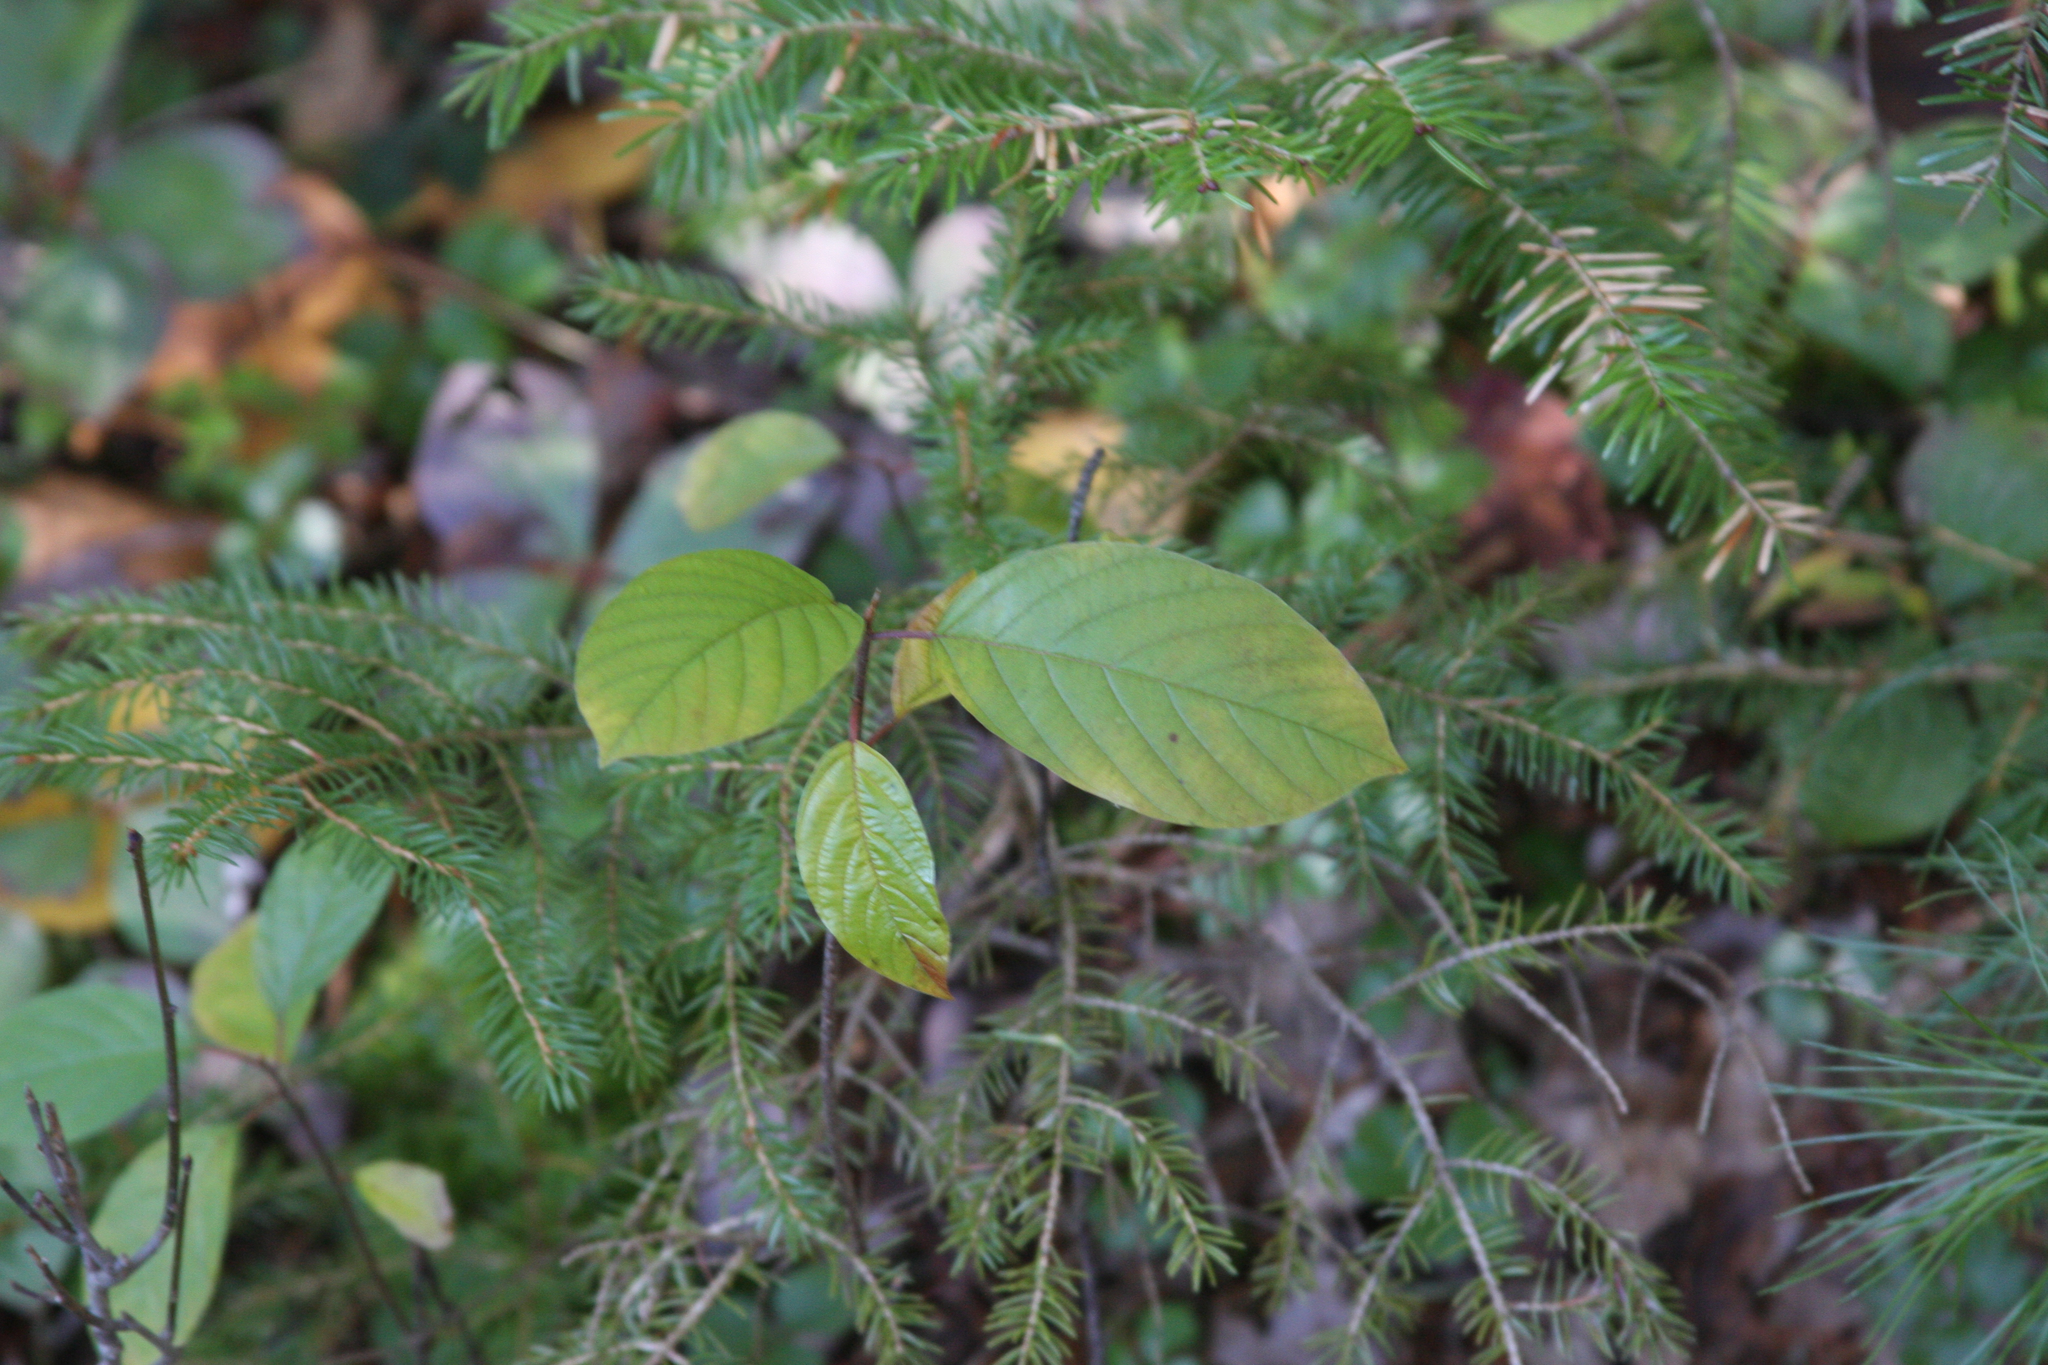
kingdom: Plantae
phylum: Tracheophyta
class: Magnoliopsida
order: Rosales
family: Rhamnaceae
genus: Frangula
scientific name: Frangula alnus
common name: Alder buckthorn
